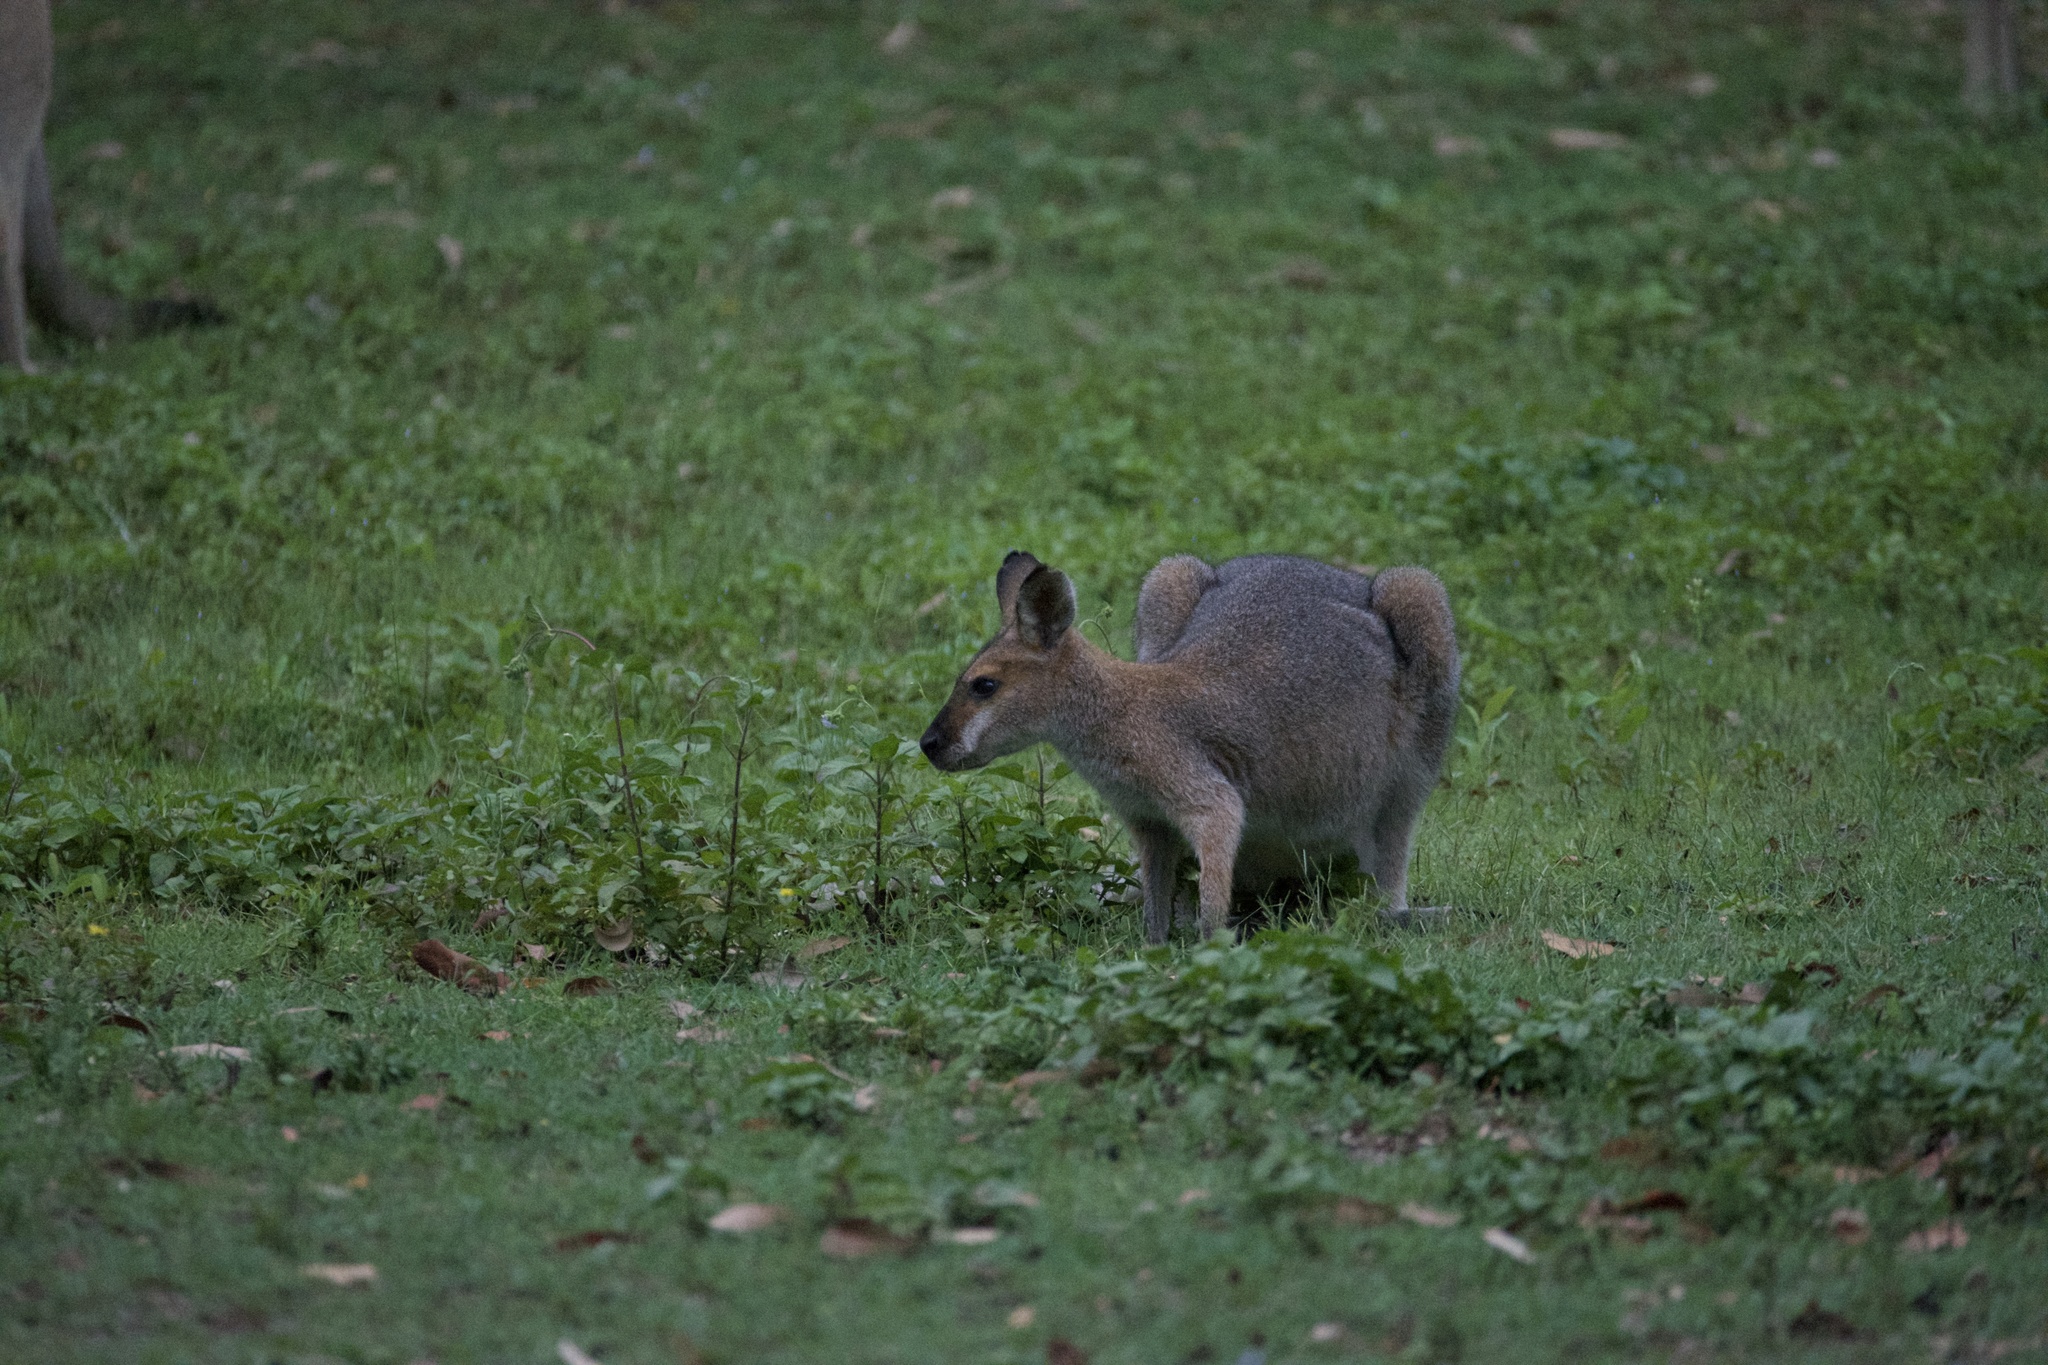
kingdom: Animalia
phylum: Chordata
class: Mammalia
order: Diprotodontia
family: Macropodidae
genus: Notamacropus
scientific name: Notamacropus rufogriseus
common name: Red-necked wallaby
